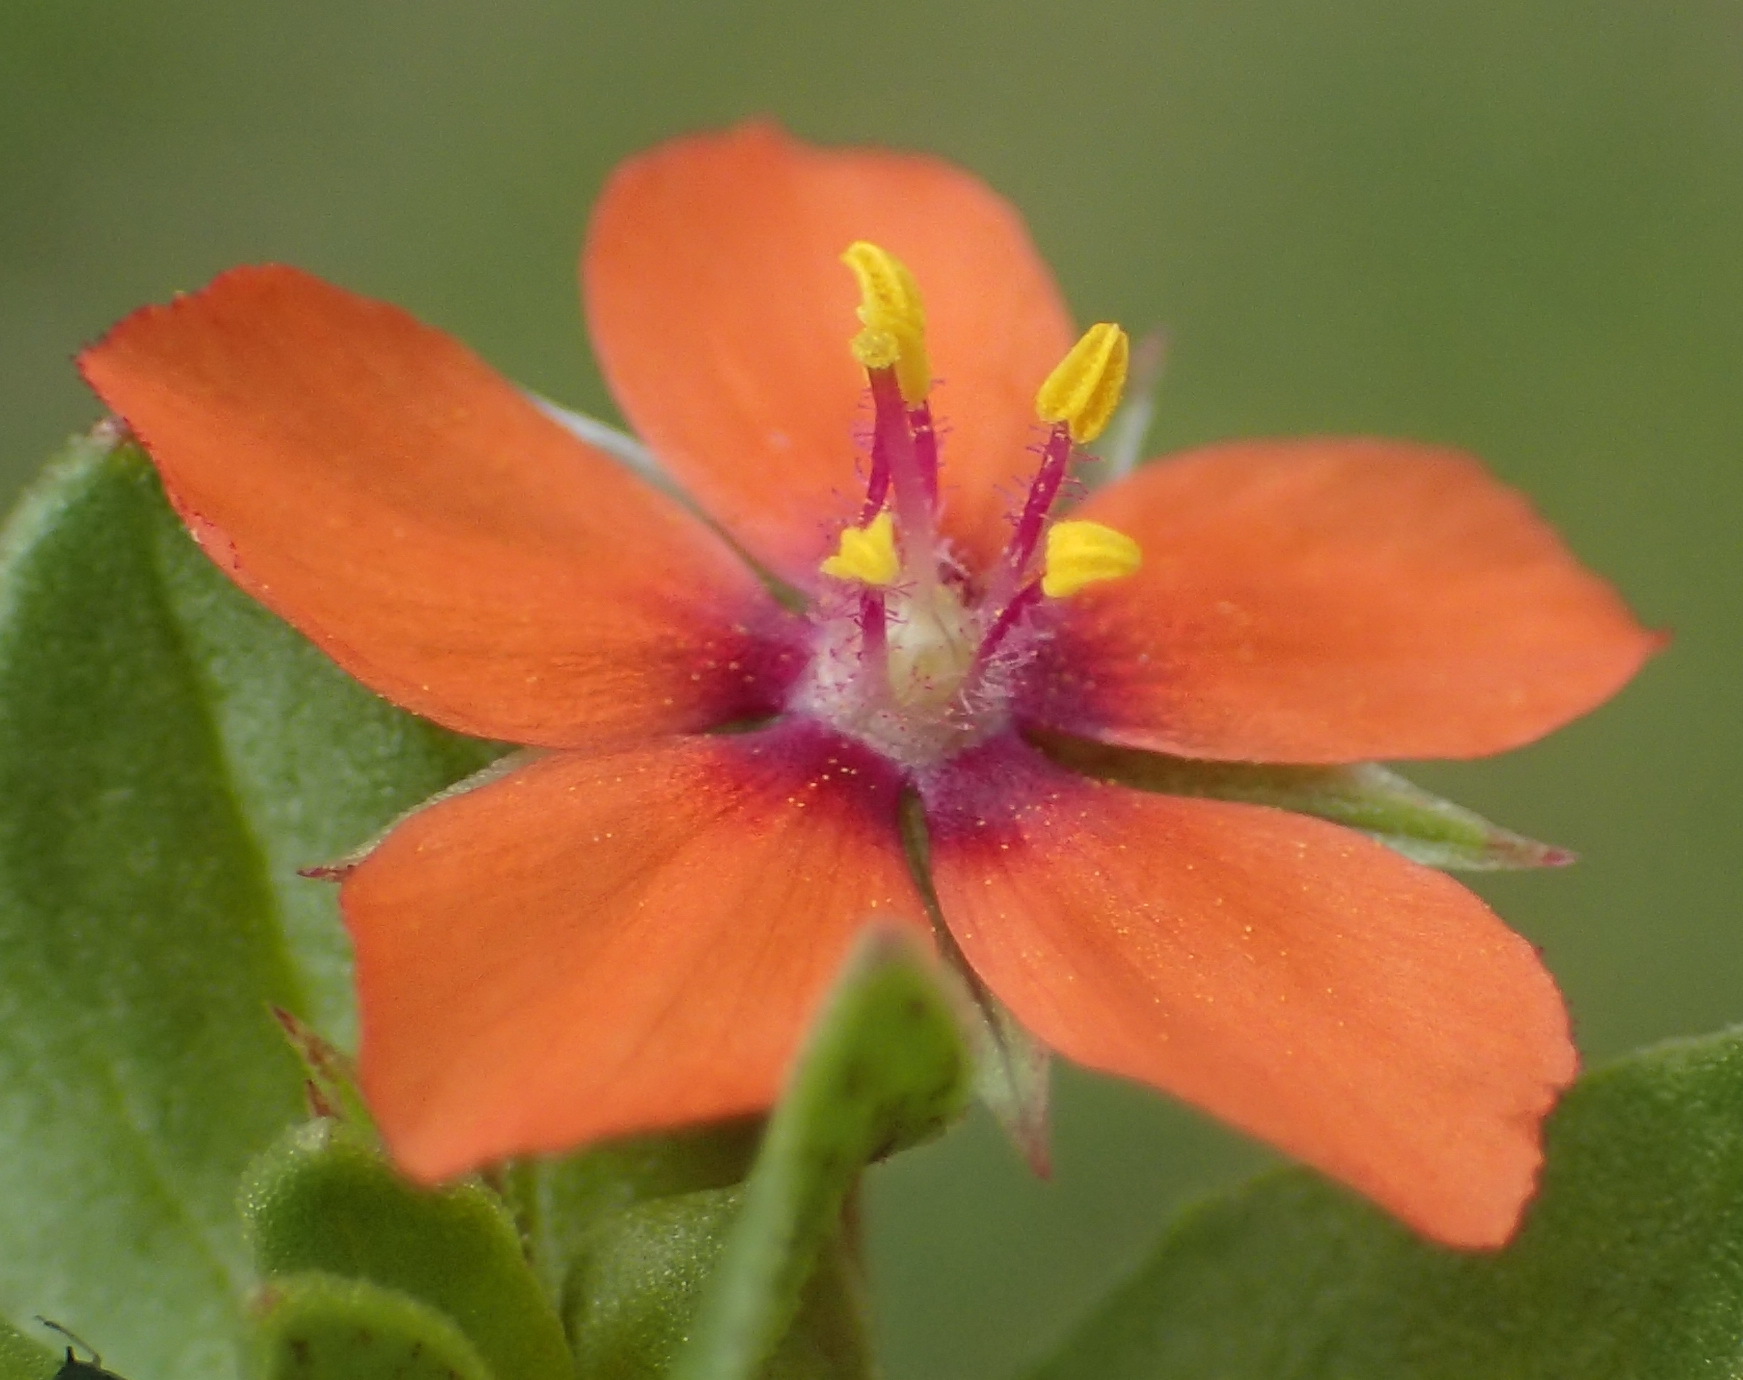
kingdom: Plantae
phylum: Tracheophyta
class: Magnoliopsida
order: Ericales
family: Primulaceae
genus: Lysimachia
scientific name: Lysimachia arvensis
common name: Scarlet pimpernel
